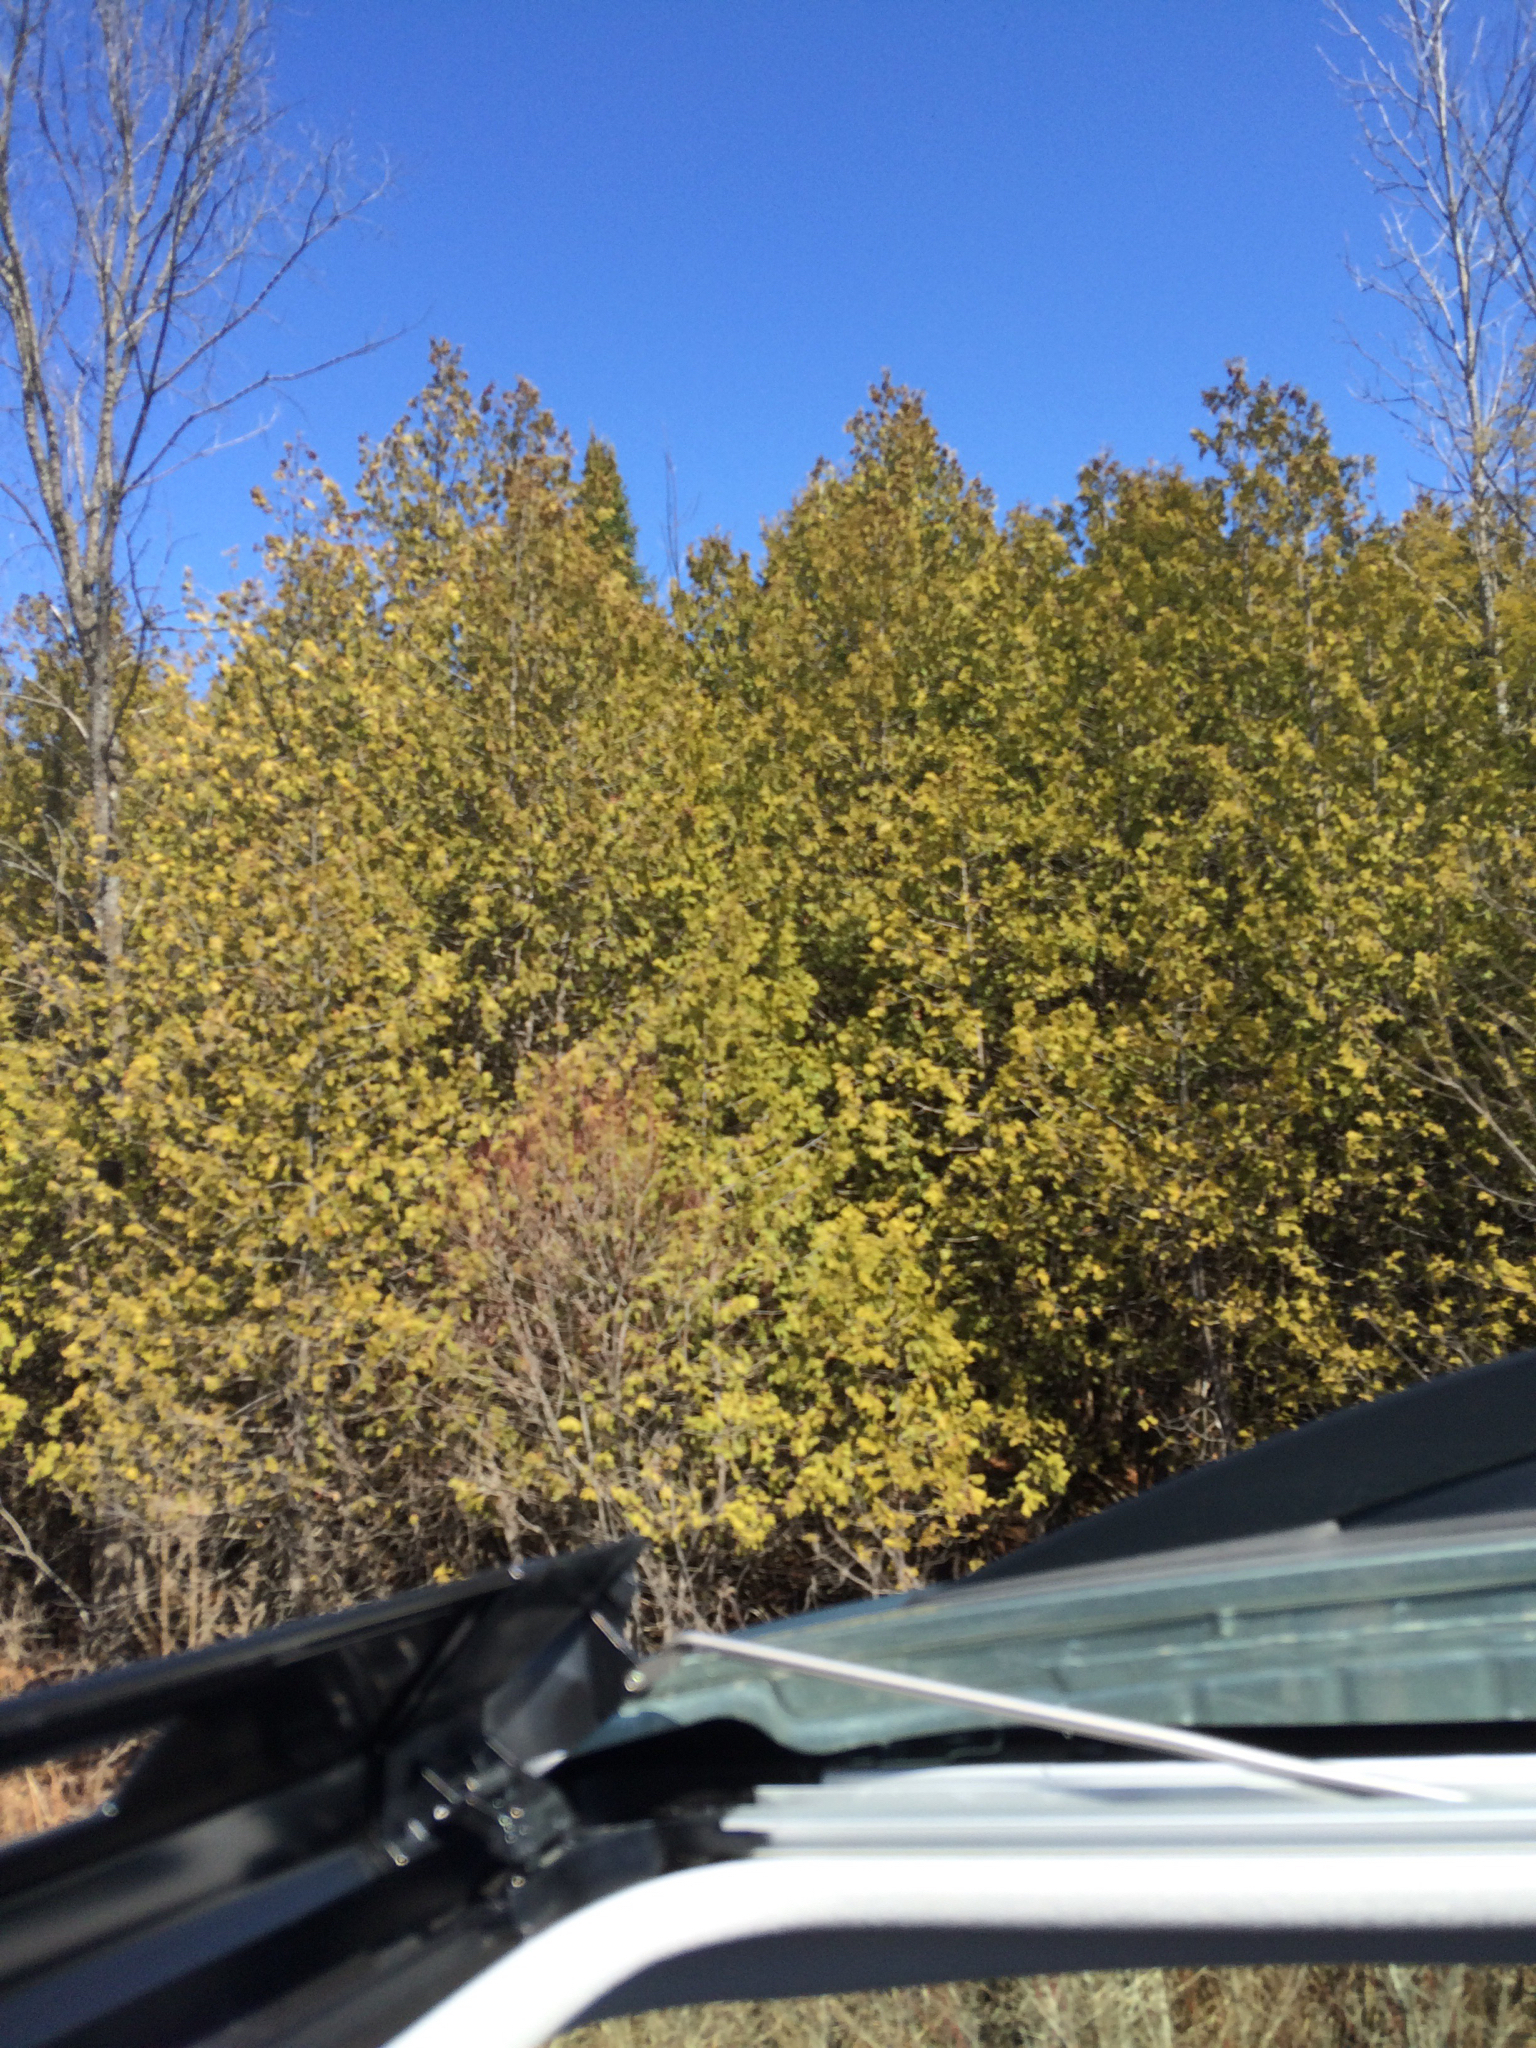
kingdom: Plantae
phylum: Tracheophyta
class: Pinopsida
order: Pinales
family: Cupressaceae
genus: Thuja
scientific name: Thuja occidentalis
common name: Northern white-cedar
